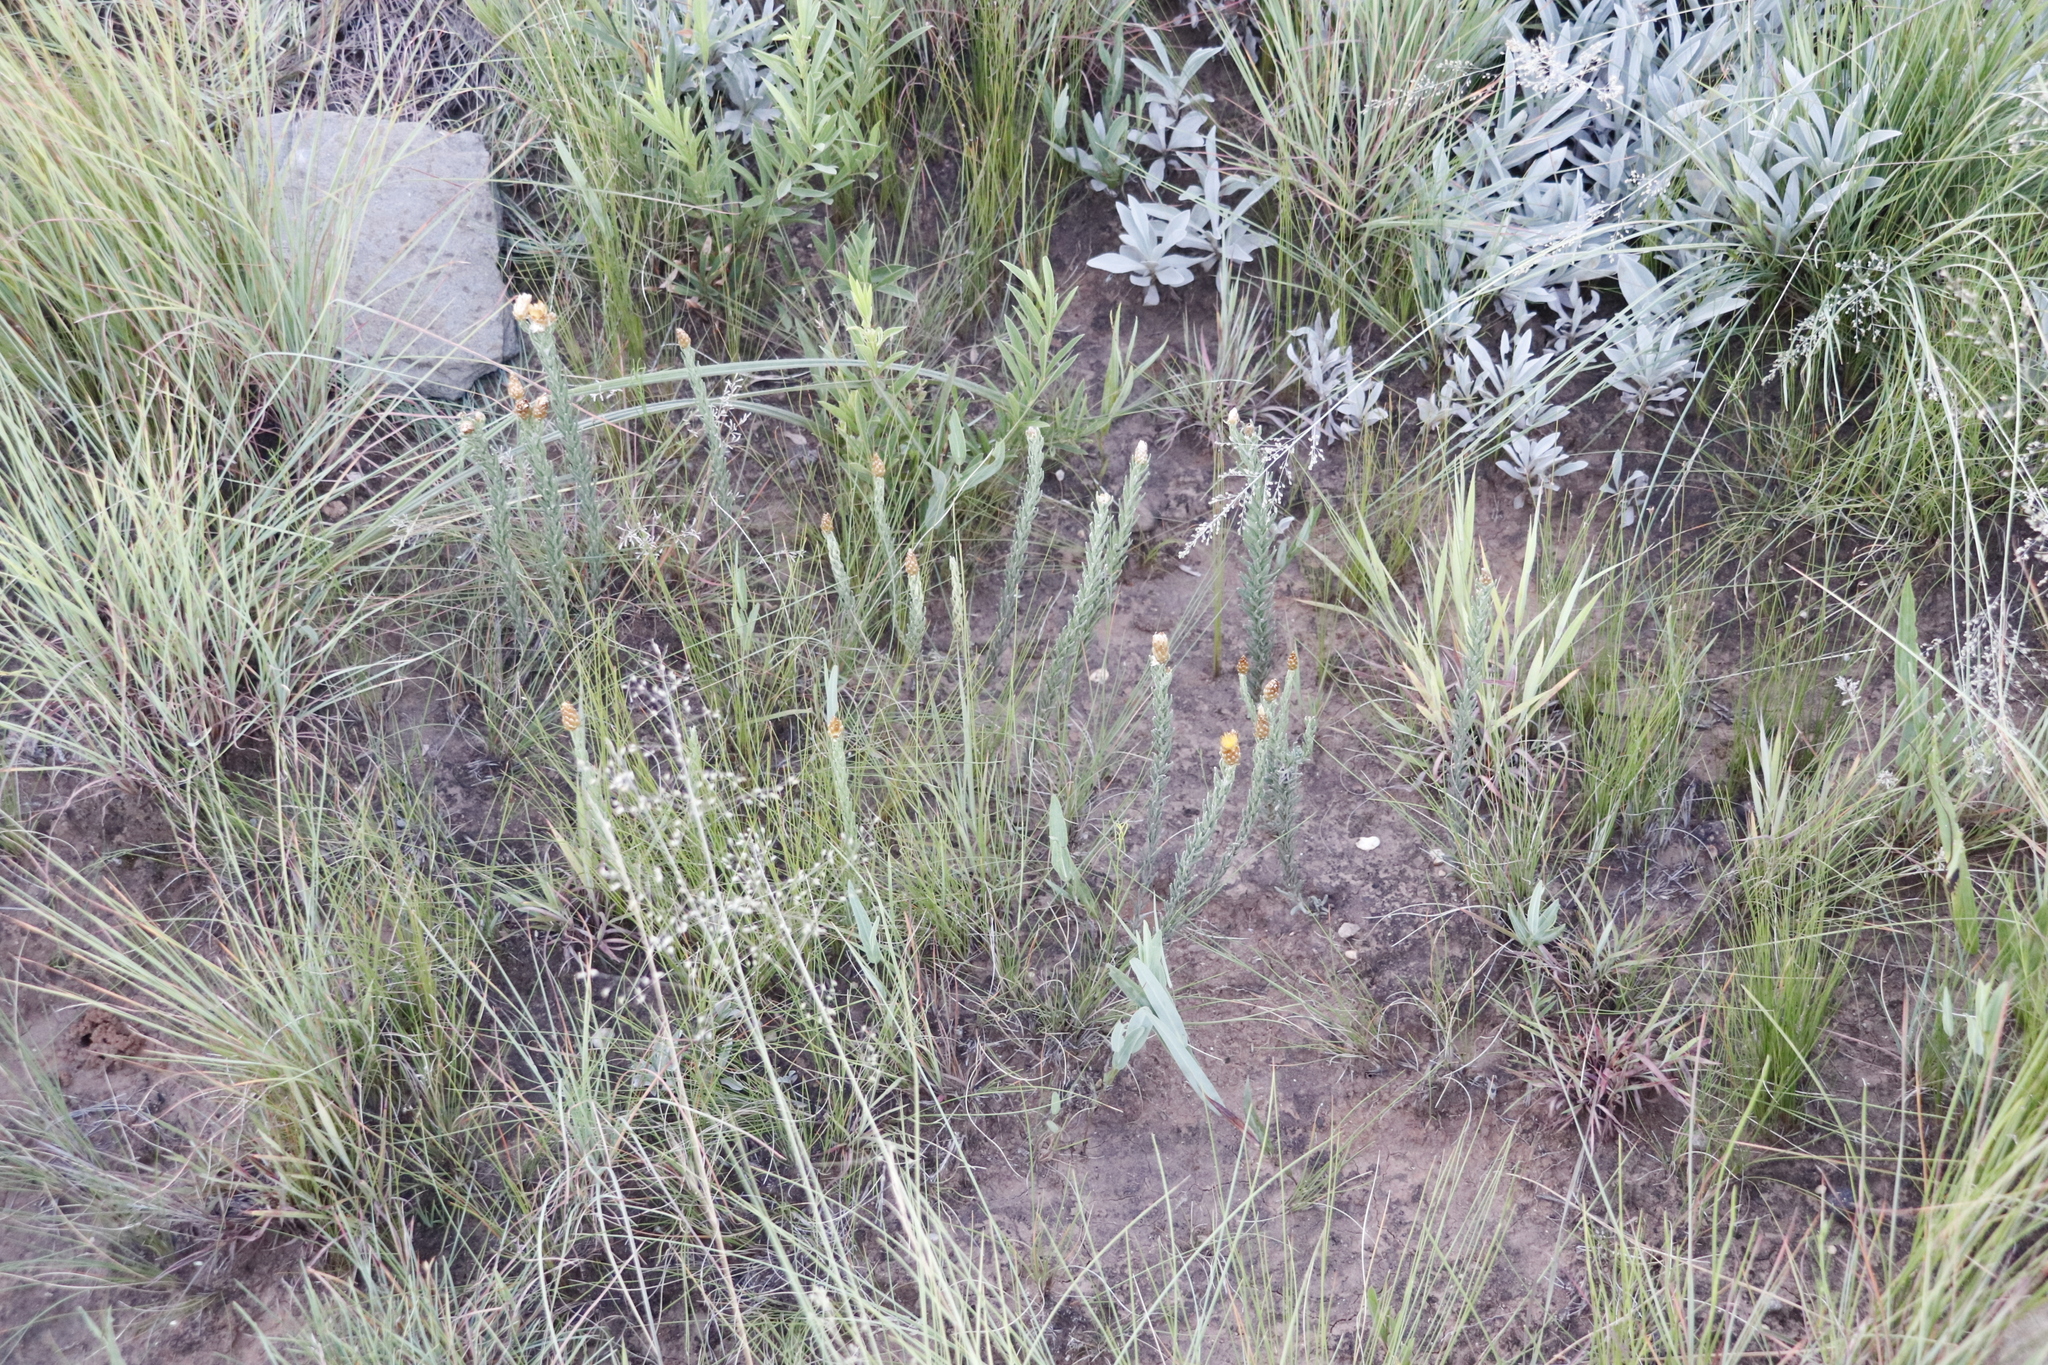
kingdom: Plantae
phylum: Tracheophyta
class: Magnoliopsida
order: Asterales
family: Asteraceae
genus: Helichrysum
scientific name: Helichrysum herbaceum
